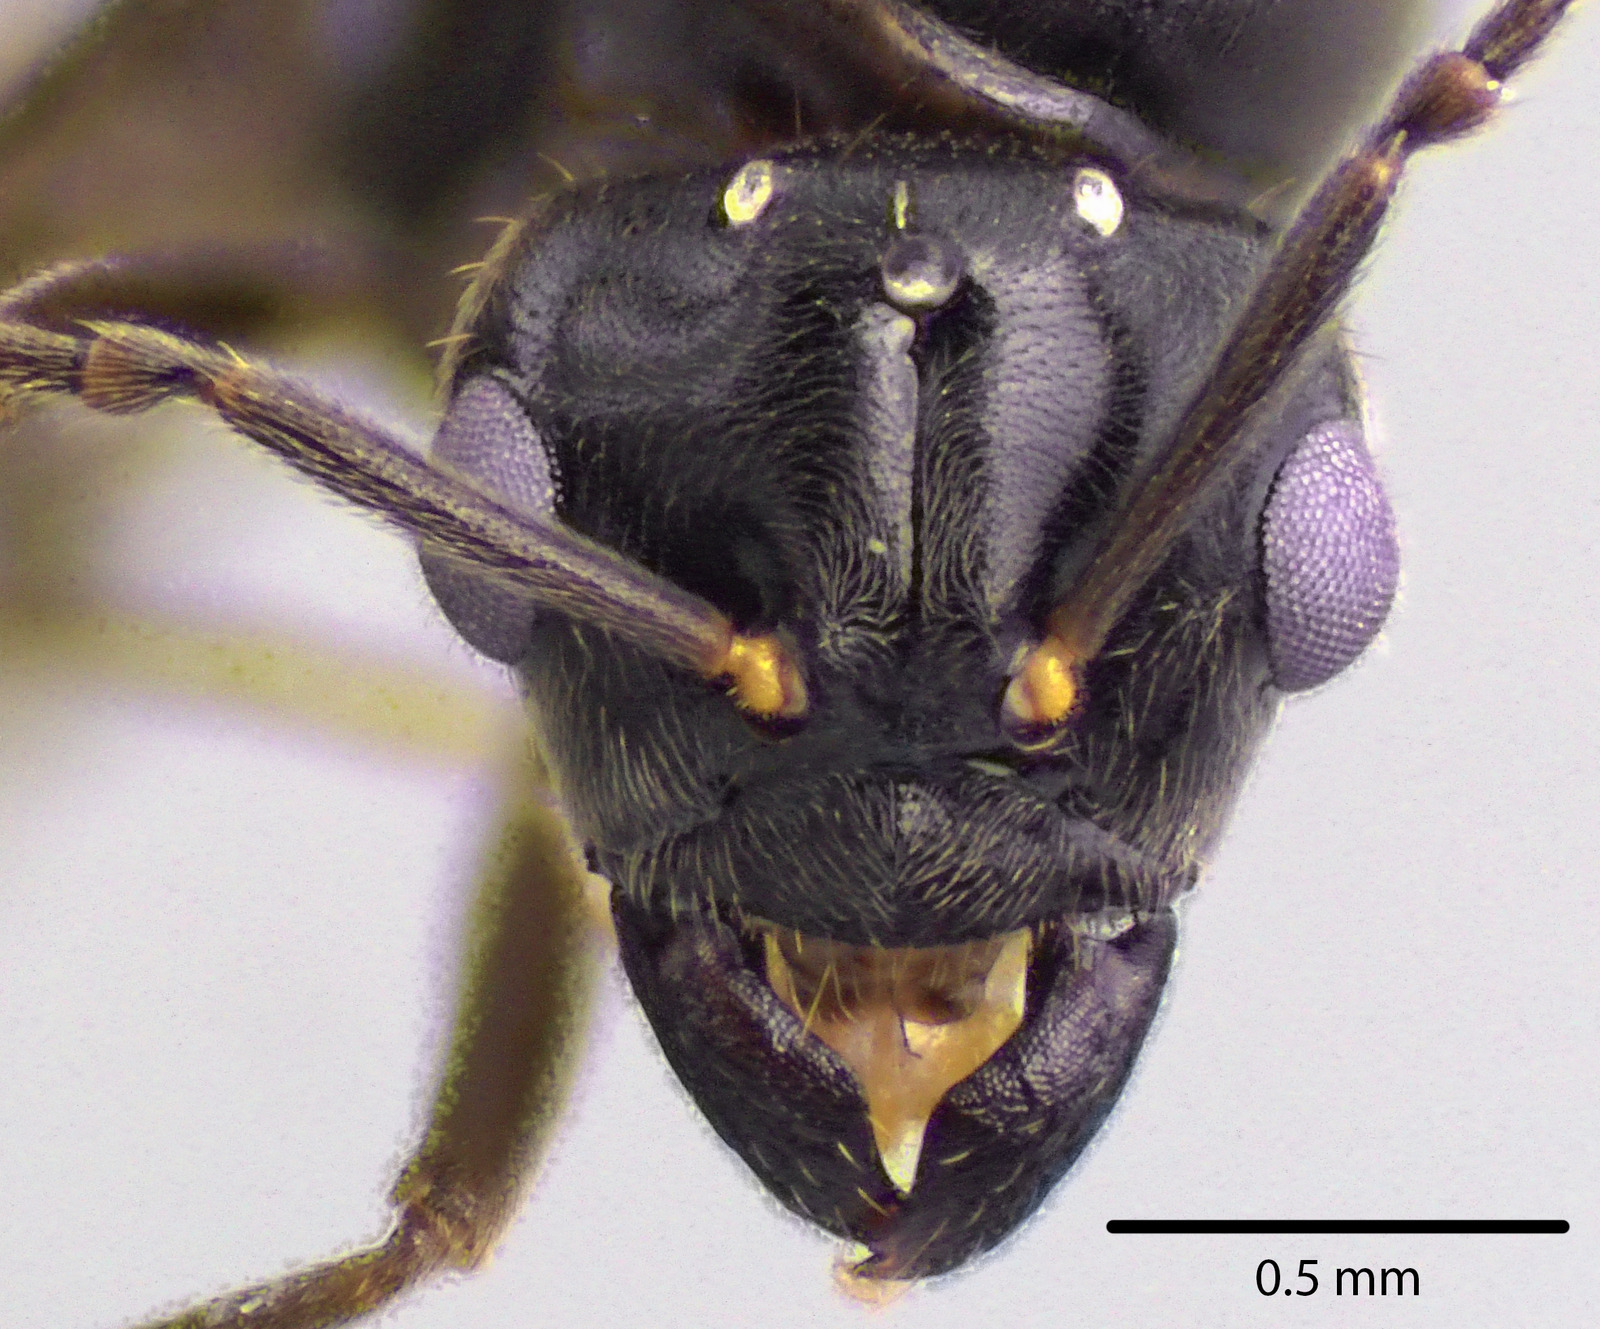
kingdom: Animalia
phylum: Arthropoda
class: Insecta
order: Hymenoptera
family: Formicidae
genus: Lasius
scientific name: Lasius aphidicola
